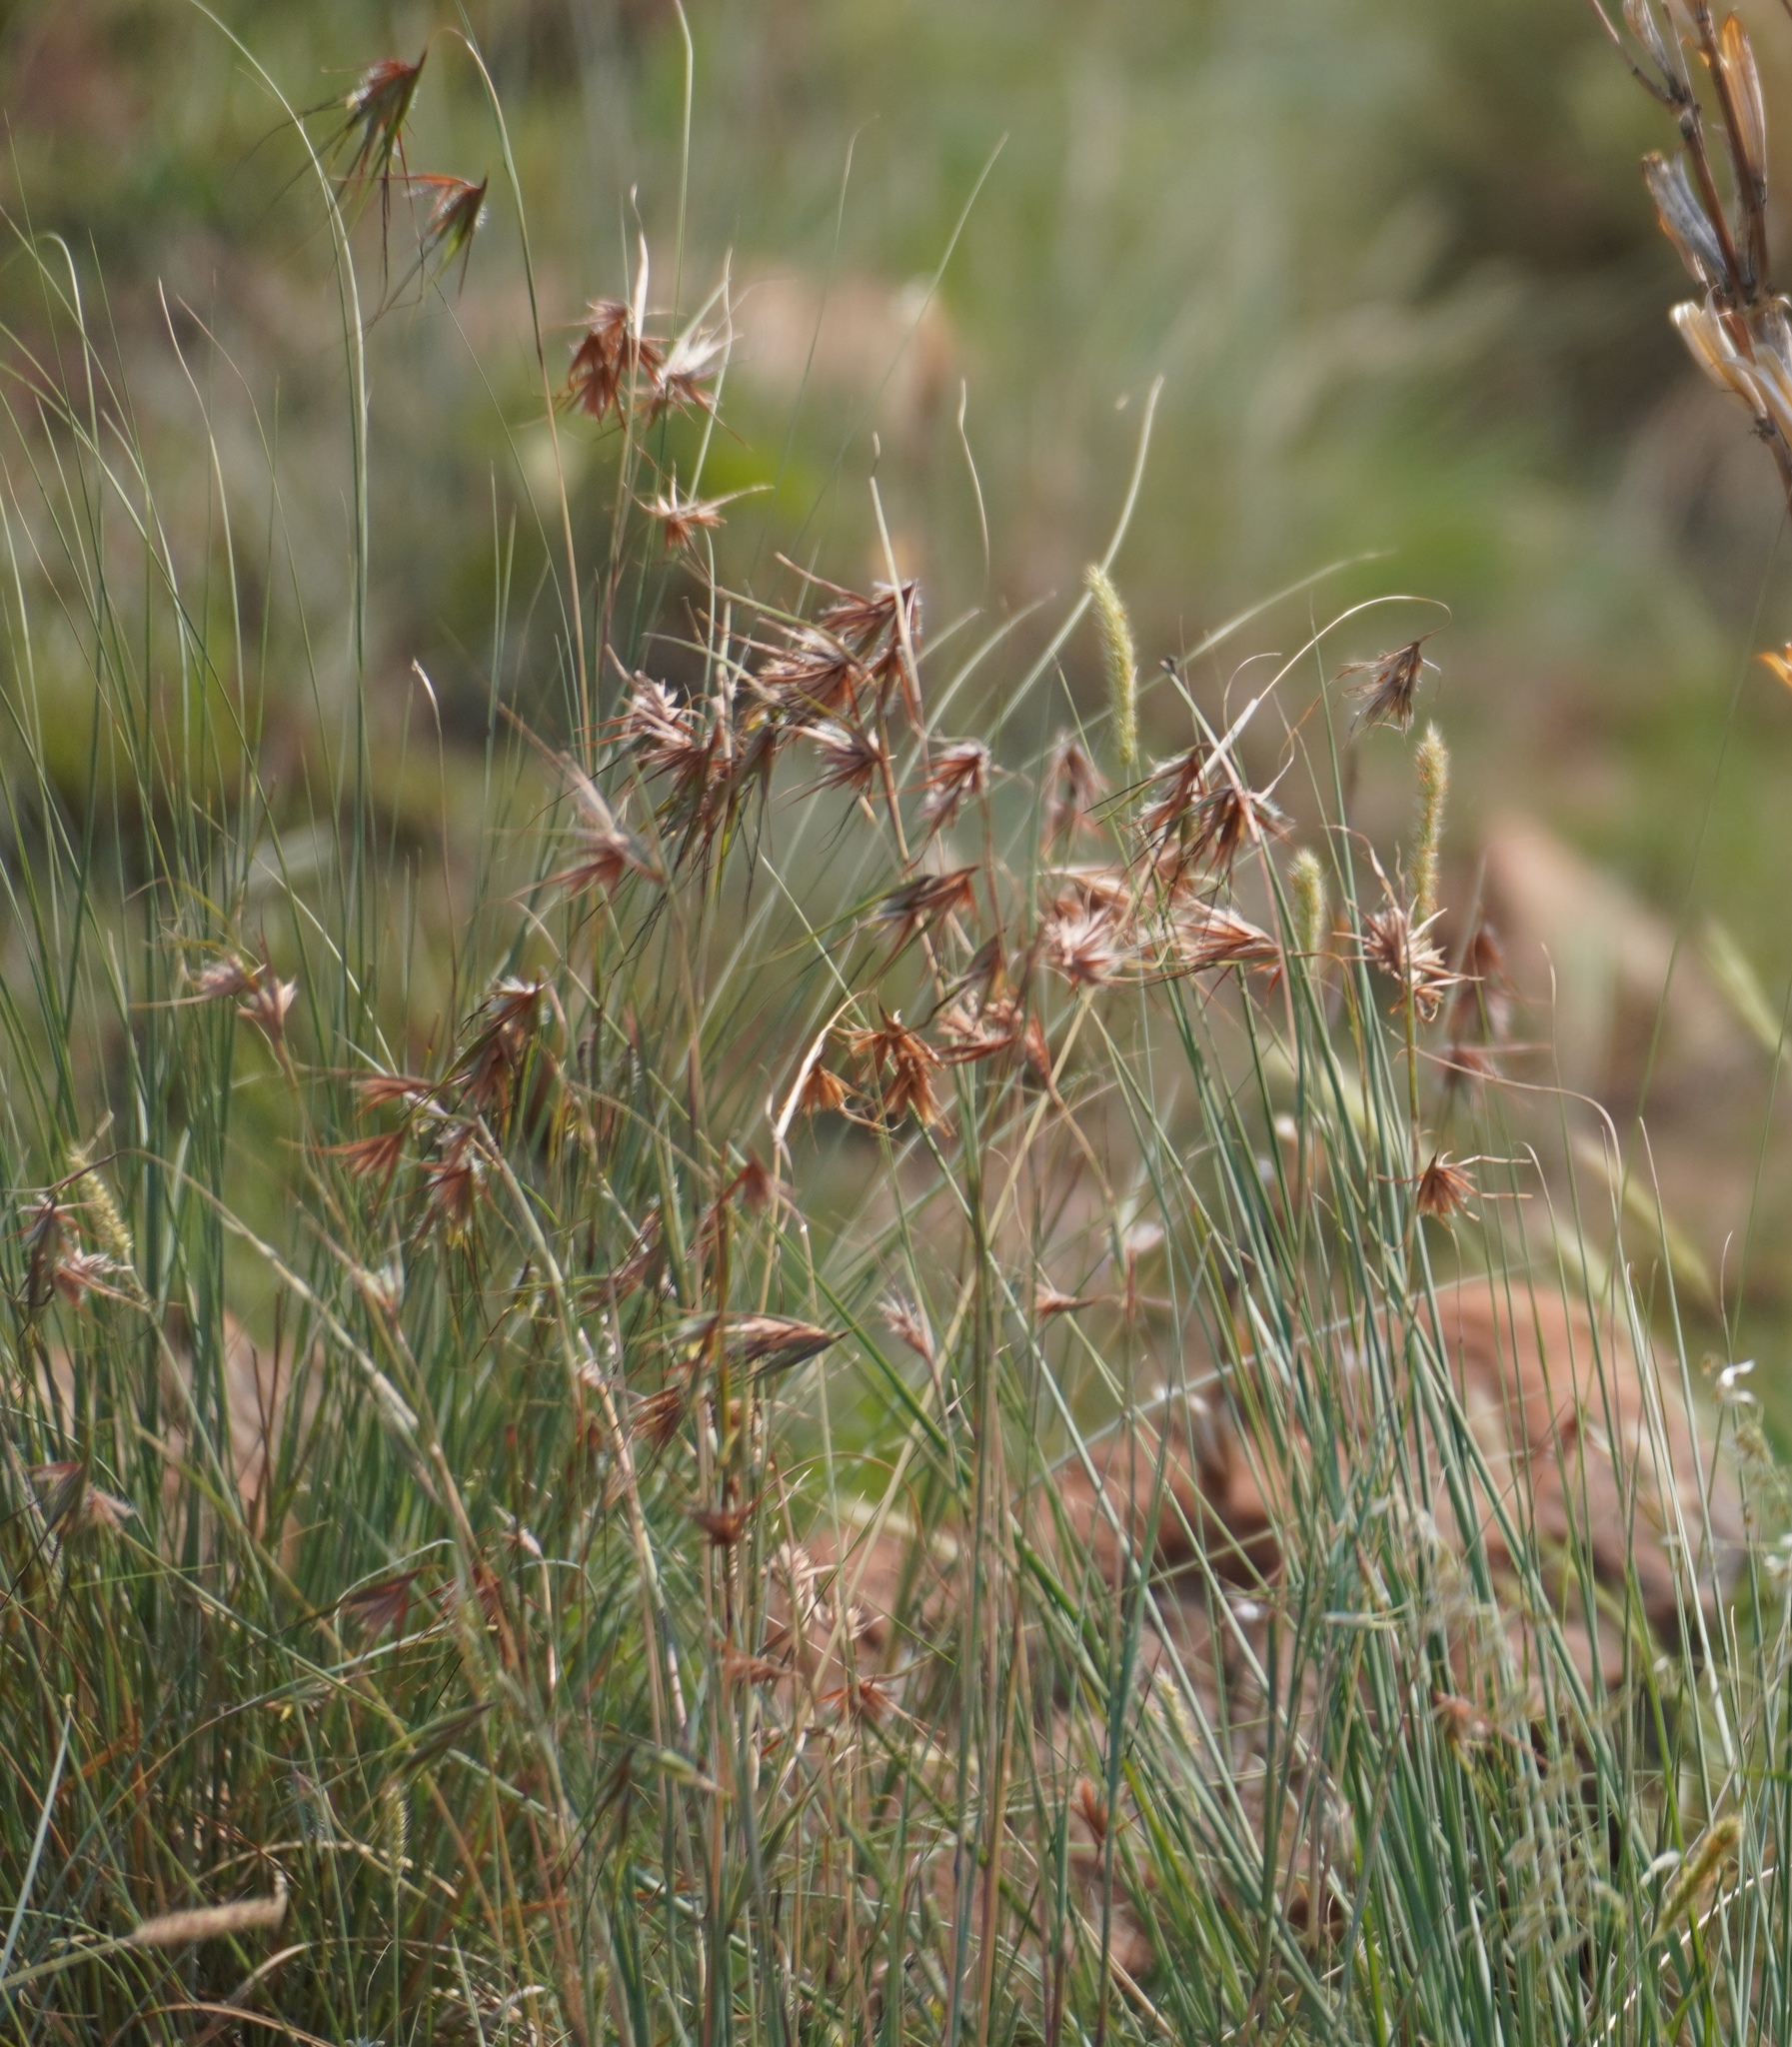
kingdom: Plantae
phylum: Tracheophyta
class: Liliopsida
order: Poales
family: Poaceae
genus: Themeda
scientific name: Themeda triandra
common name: Kangaroo grass
